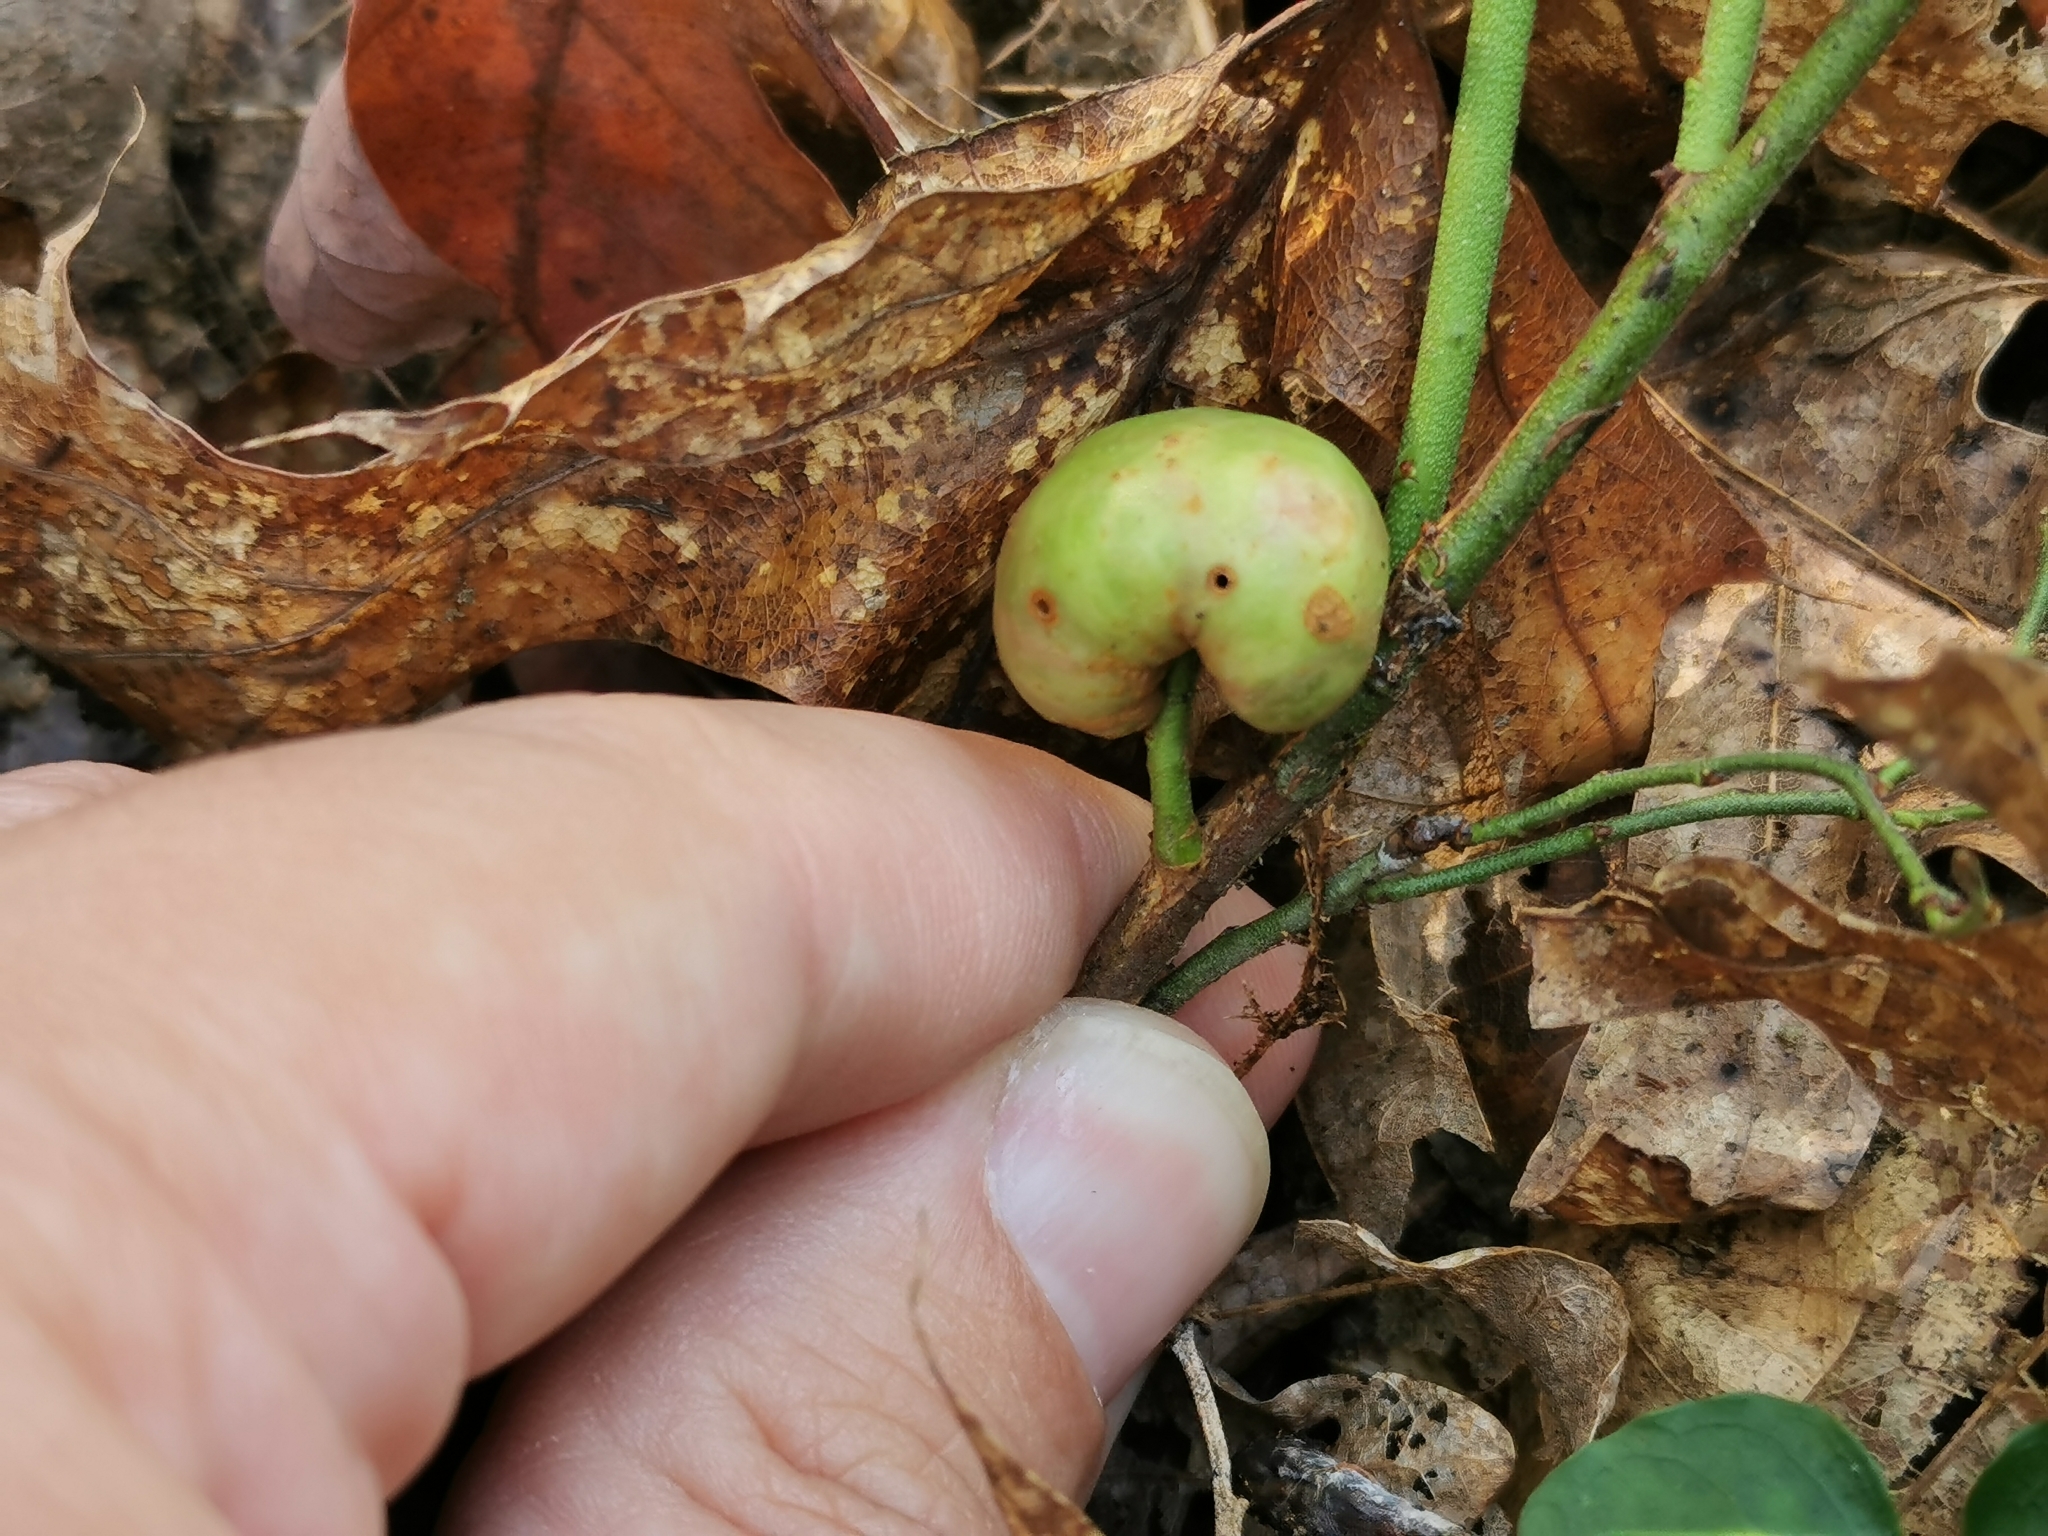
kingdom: Animalia
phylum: Arthropoda
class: Insecta
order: Hymenoptera
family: Pteromalidae
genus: Hemadas
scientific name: Hemadas nubilipennis
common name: Blueberry stem gall wasp
